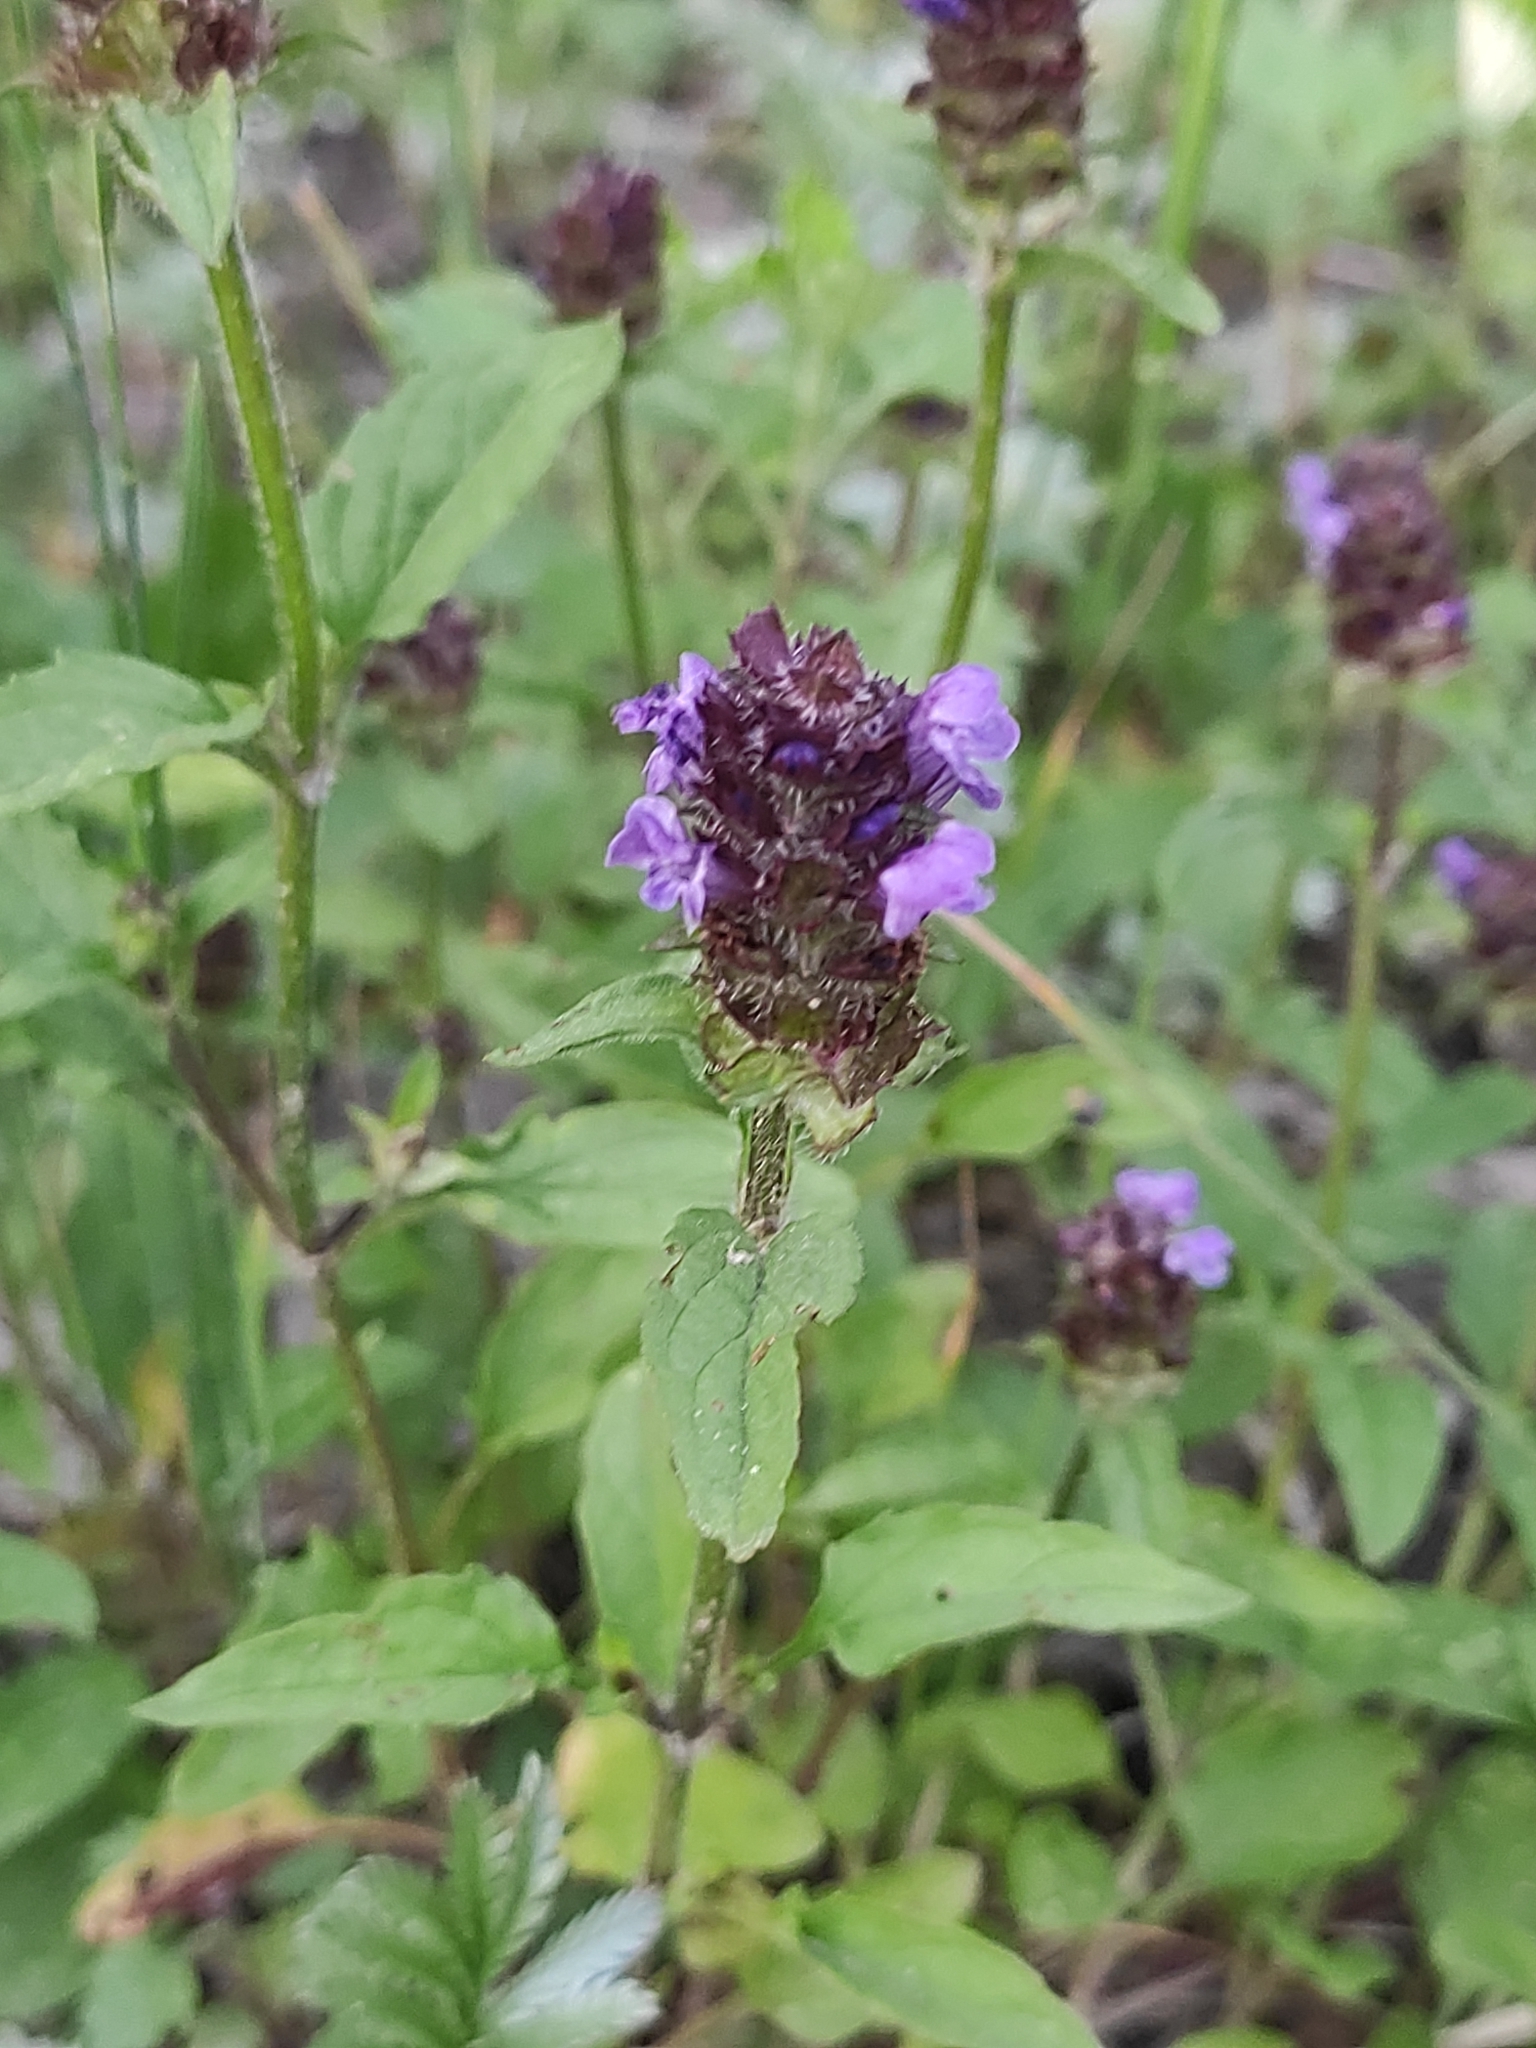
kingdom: Plantae
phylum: Tracheophyta
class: Magnoliopsida
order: Lamiales
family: Lamiaceae
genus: Prunella
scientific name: Prunella vulgaris
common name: Heal-all
